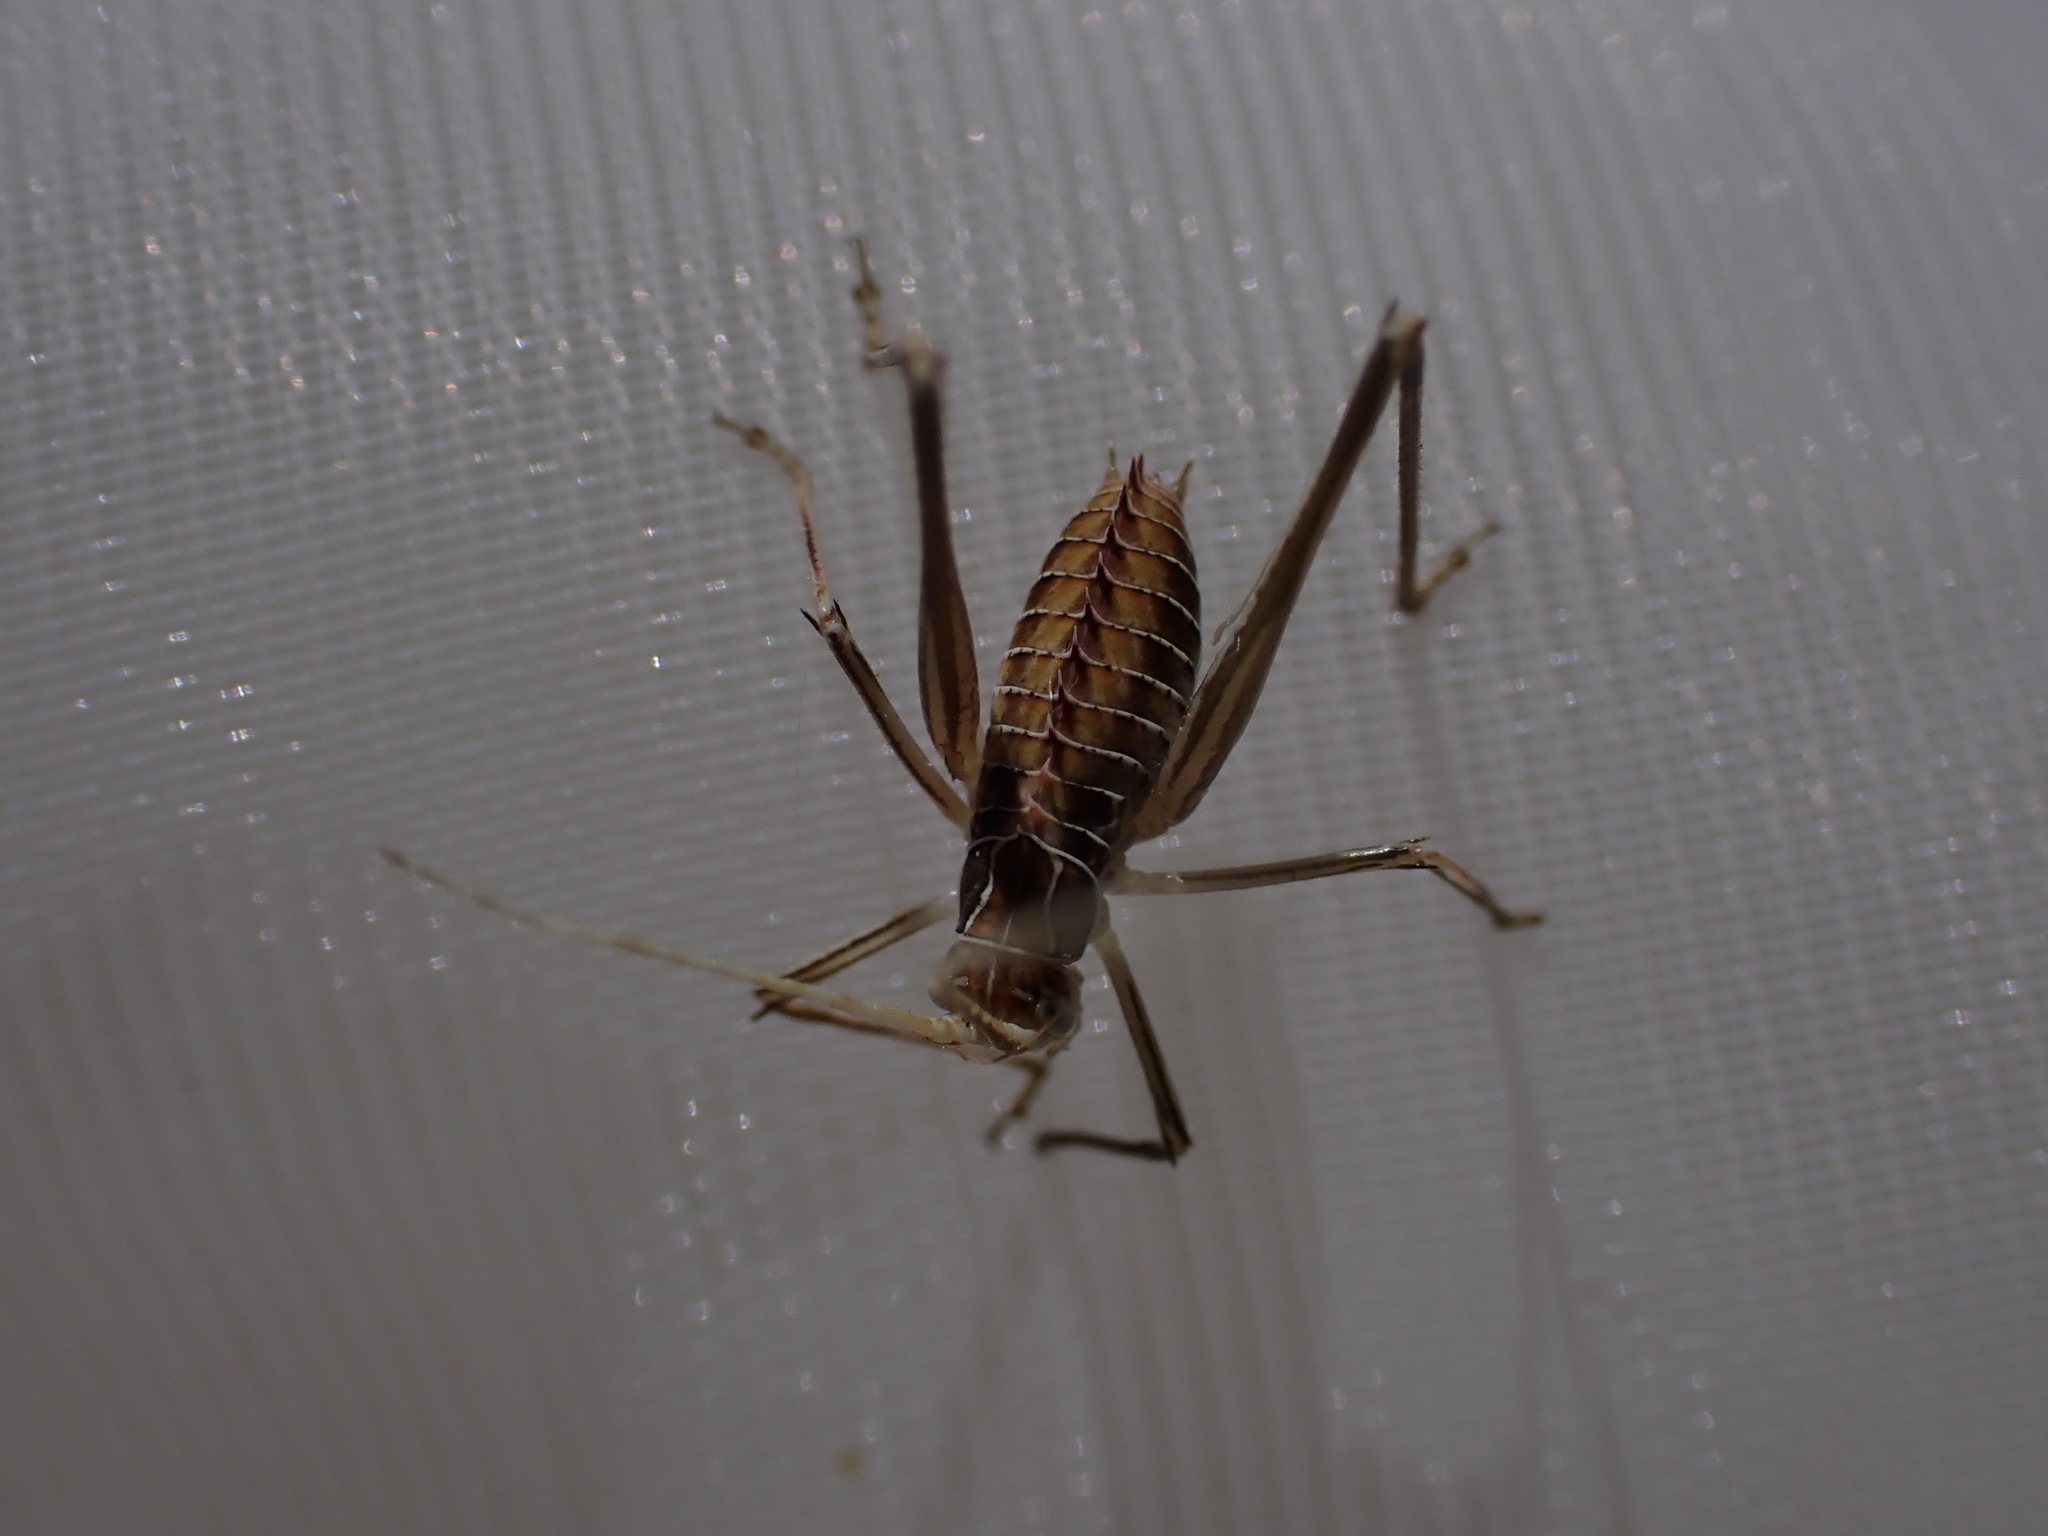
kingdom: Animalia
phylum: Arthropoda
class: Insecta
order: Orthoptera
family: Tettigoniidae
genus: Tylopsis
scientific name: Tylopsis lilifolia
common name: Lily bush-cricket
